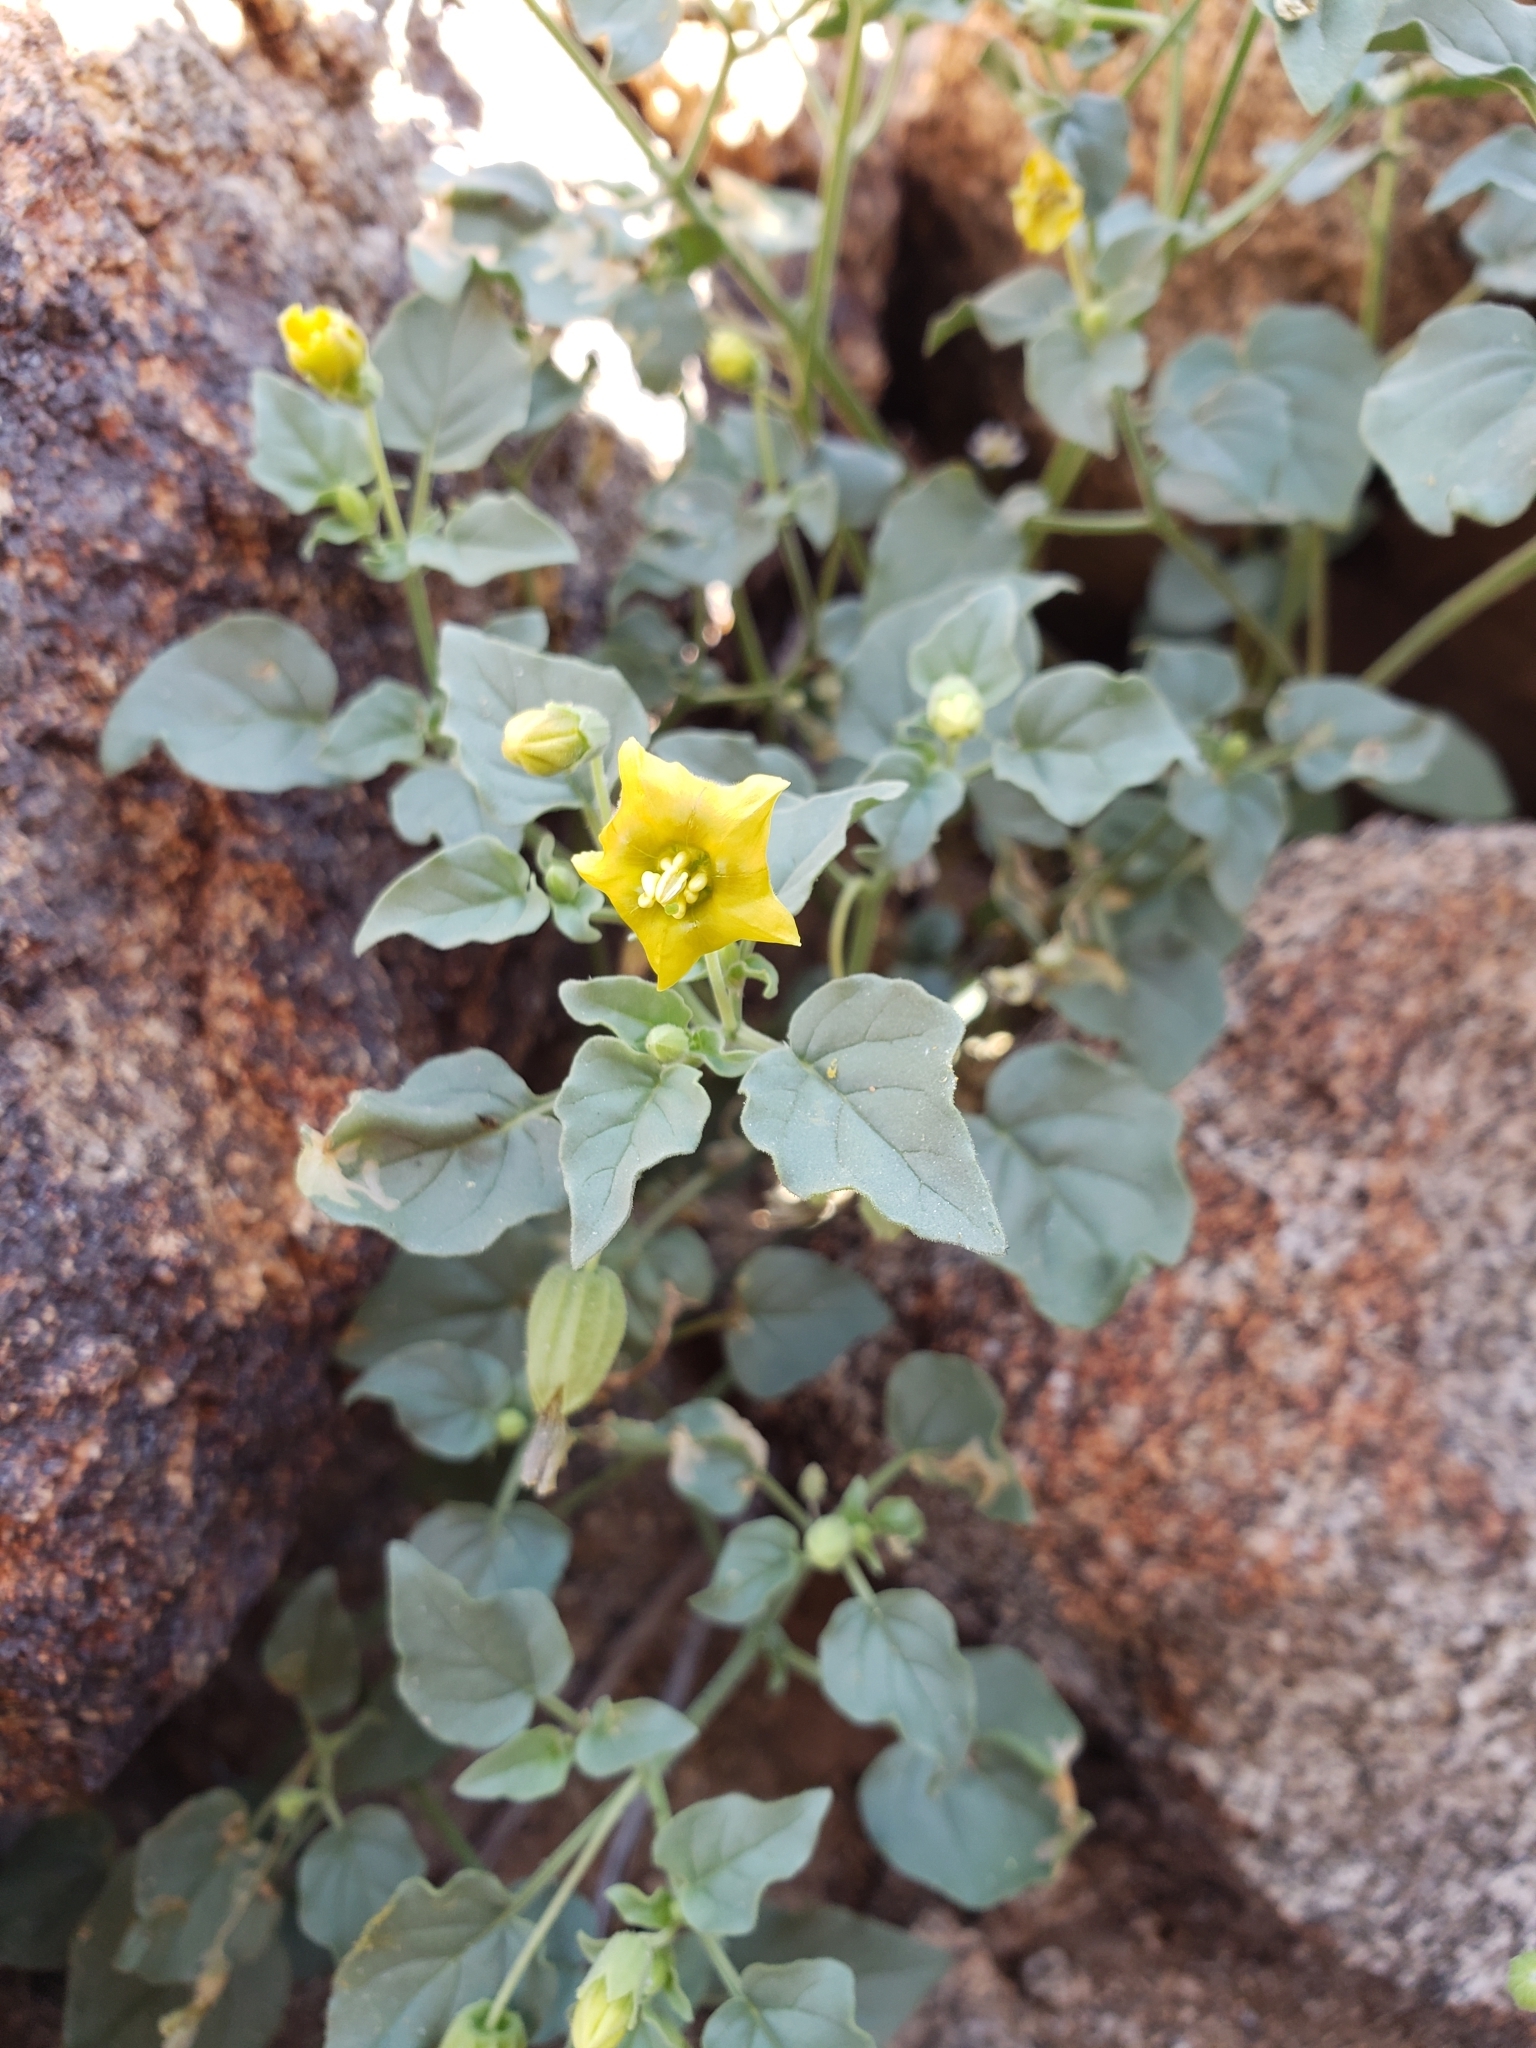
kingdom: Plantae
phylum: Tracheophyta
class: Magnoliopsida
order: Solanales
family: Solanaceae
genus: Physalis
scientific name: Physalis crassifolia
